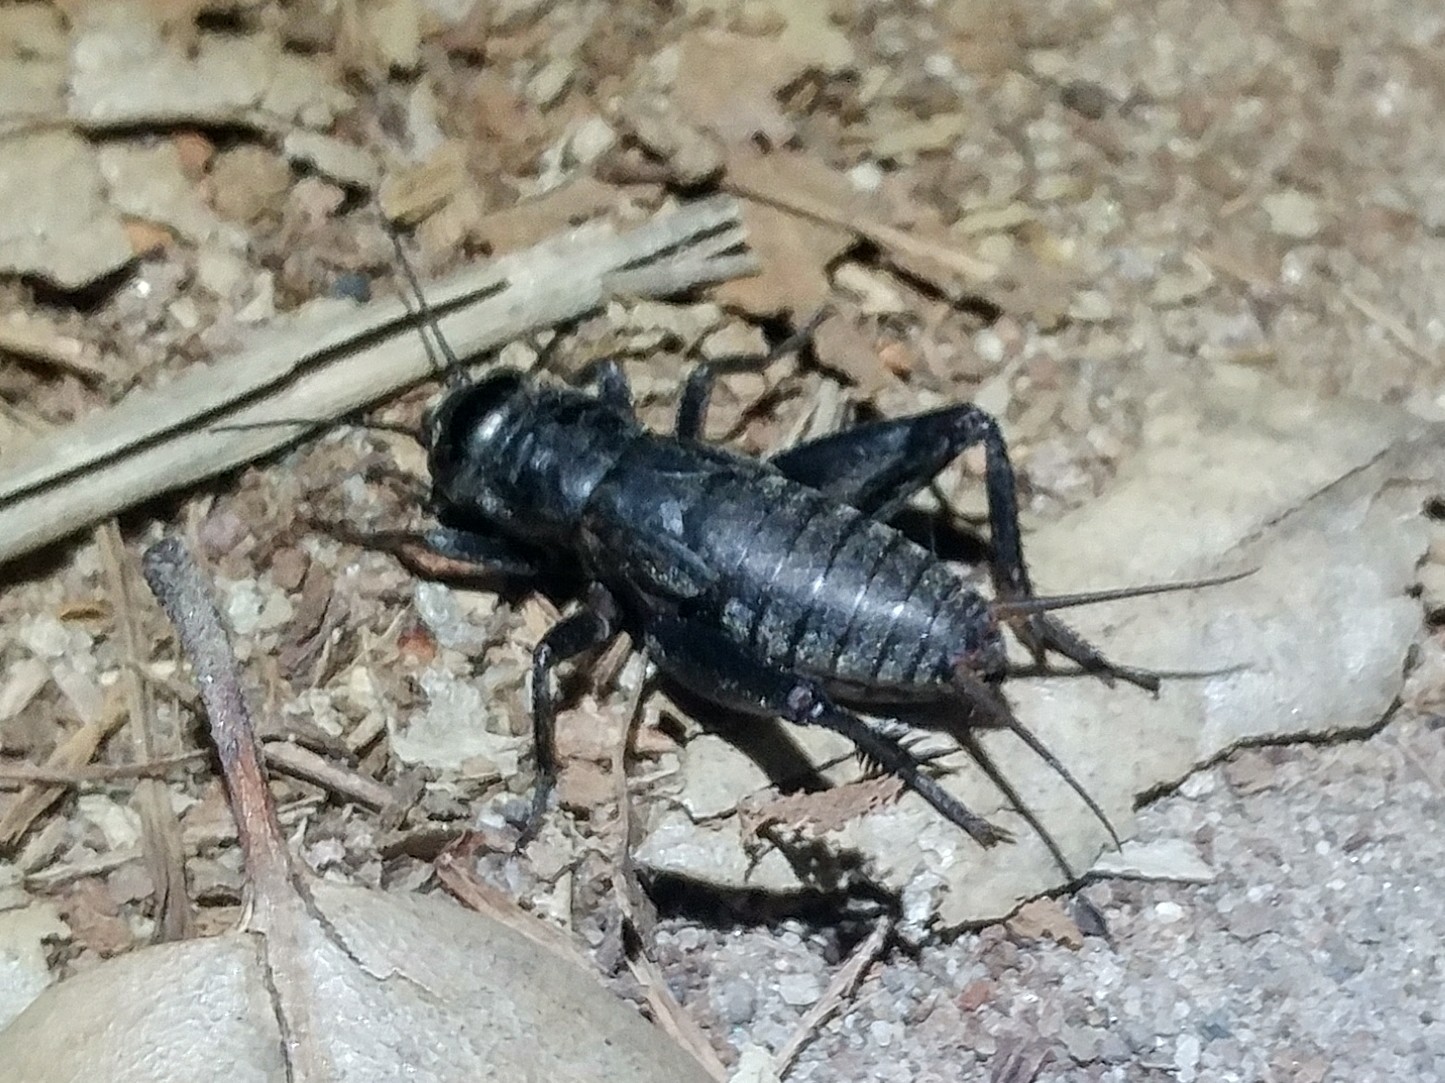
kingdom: Animalia
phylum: Arthropoda
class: Insecta
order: Orthoptera
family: Gryllidae
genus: Gryllus
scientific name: Gryllus
